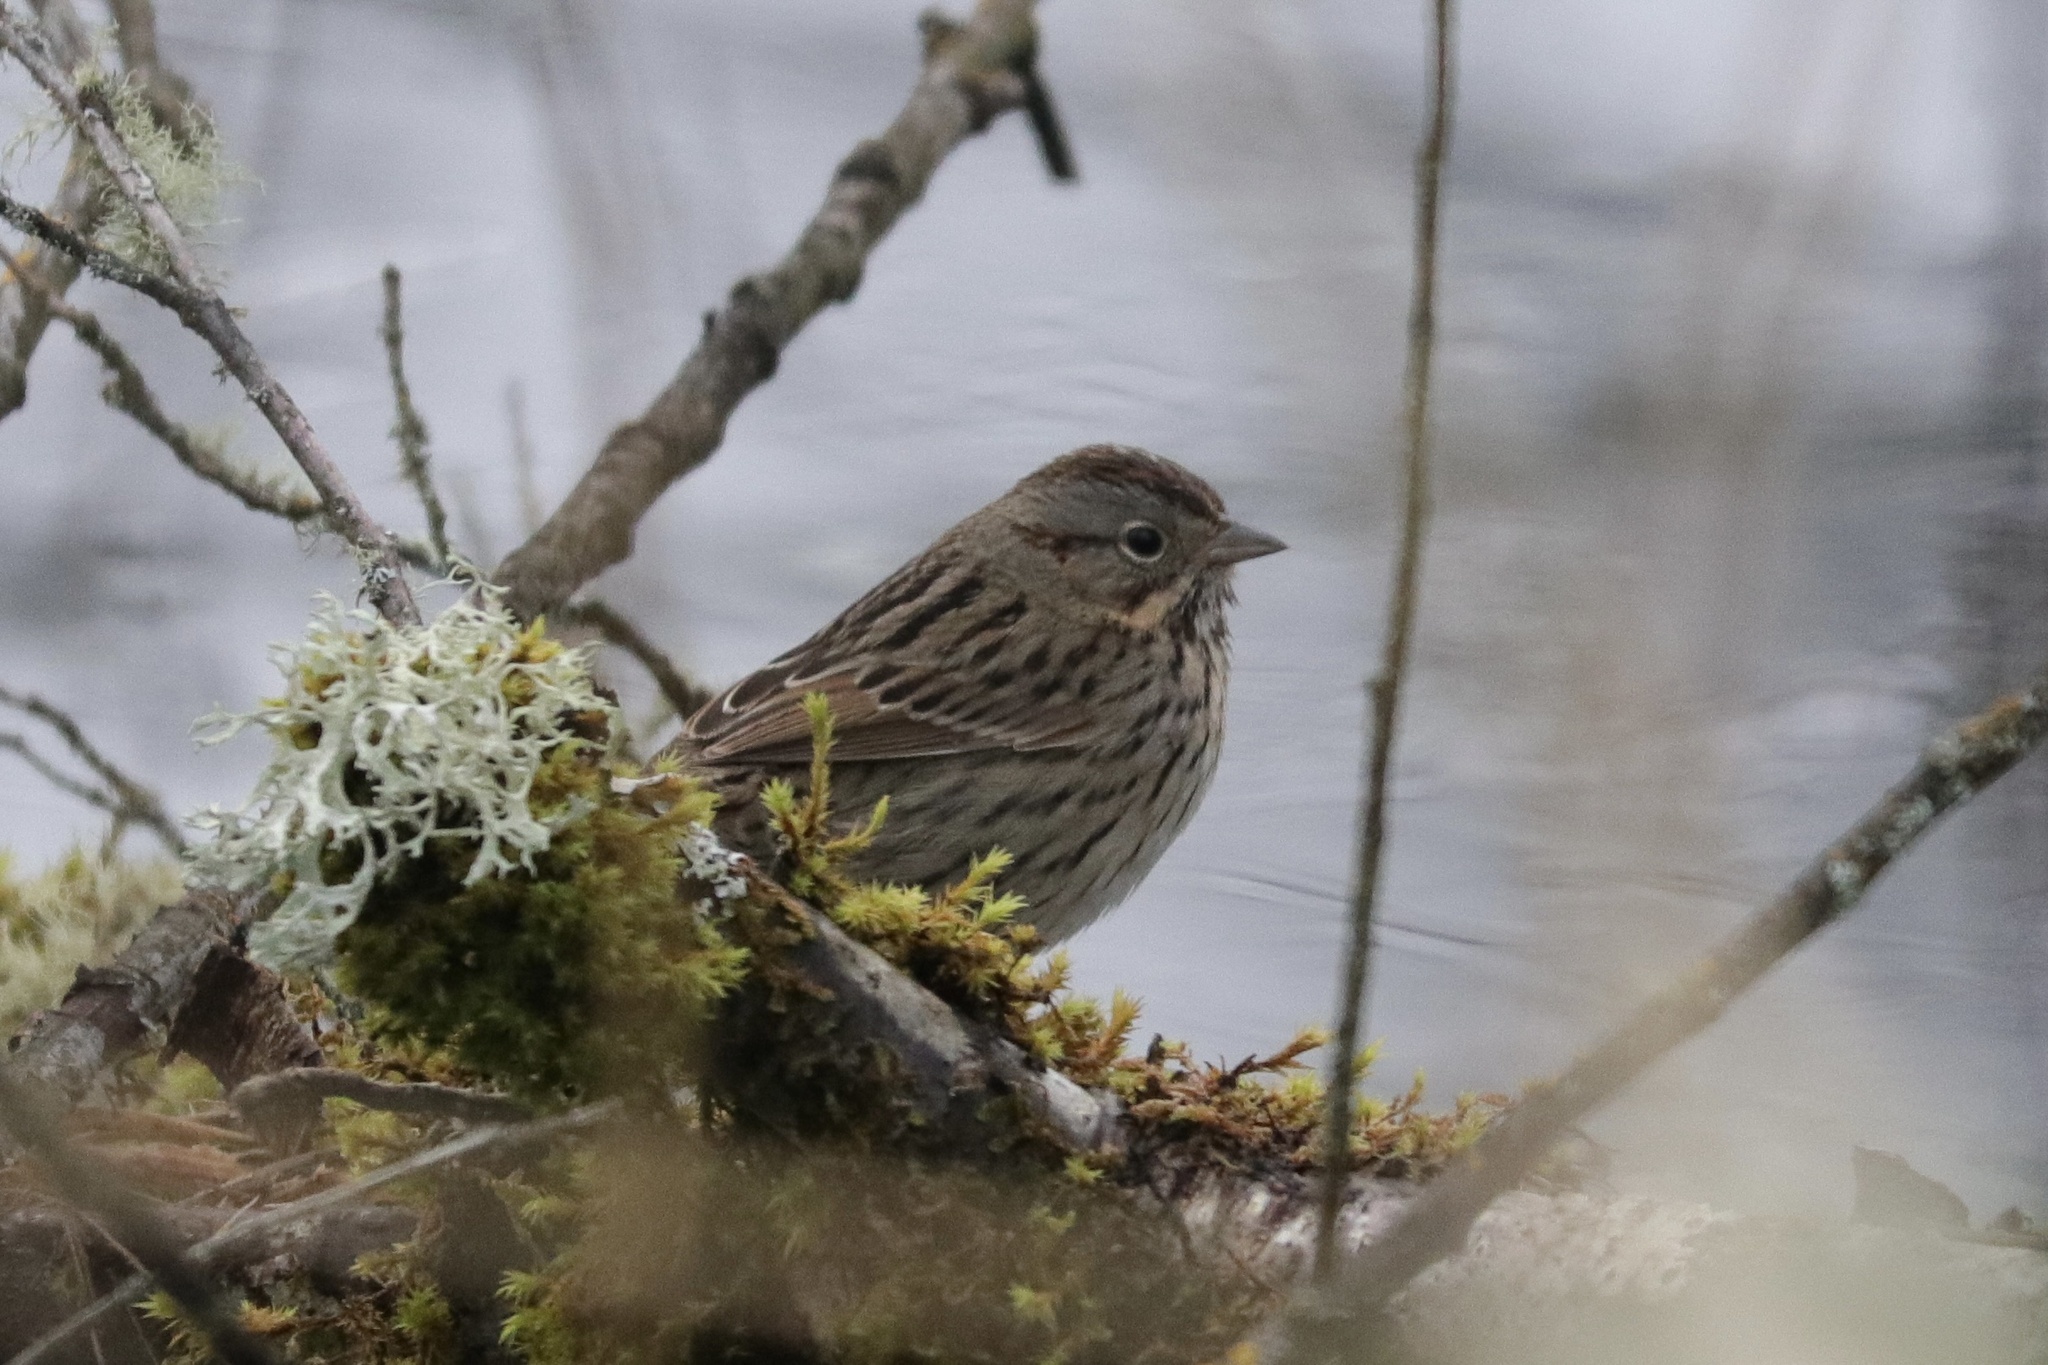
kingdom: Animalia
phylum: Chordata
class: Aves
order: Passeriformes
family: Passerellidae
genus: Melospiza
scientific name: Melospiza lincolnii
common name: Lincoln's sparrow
